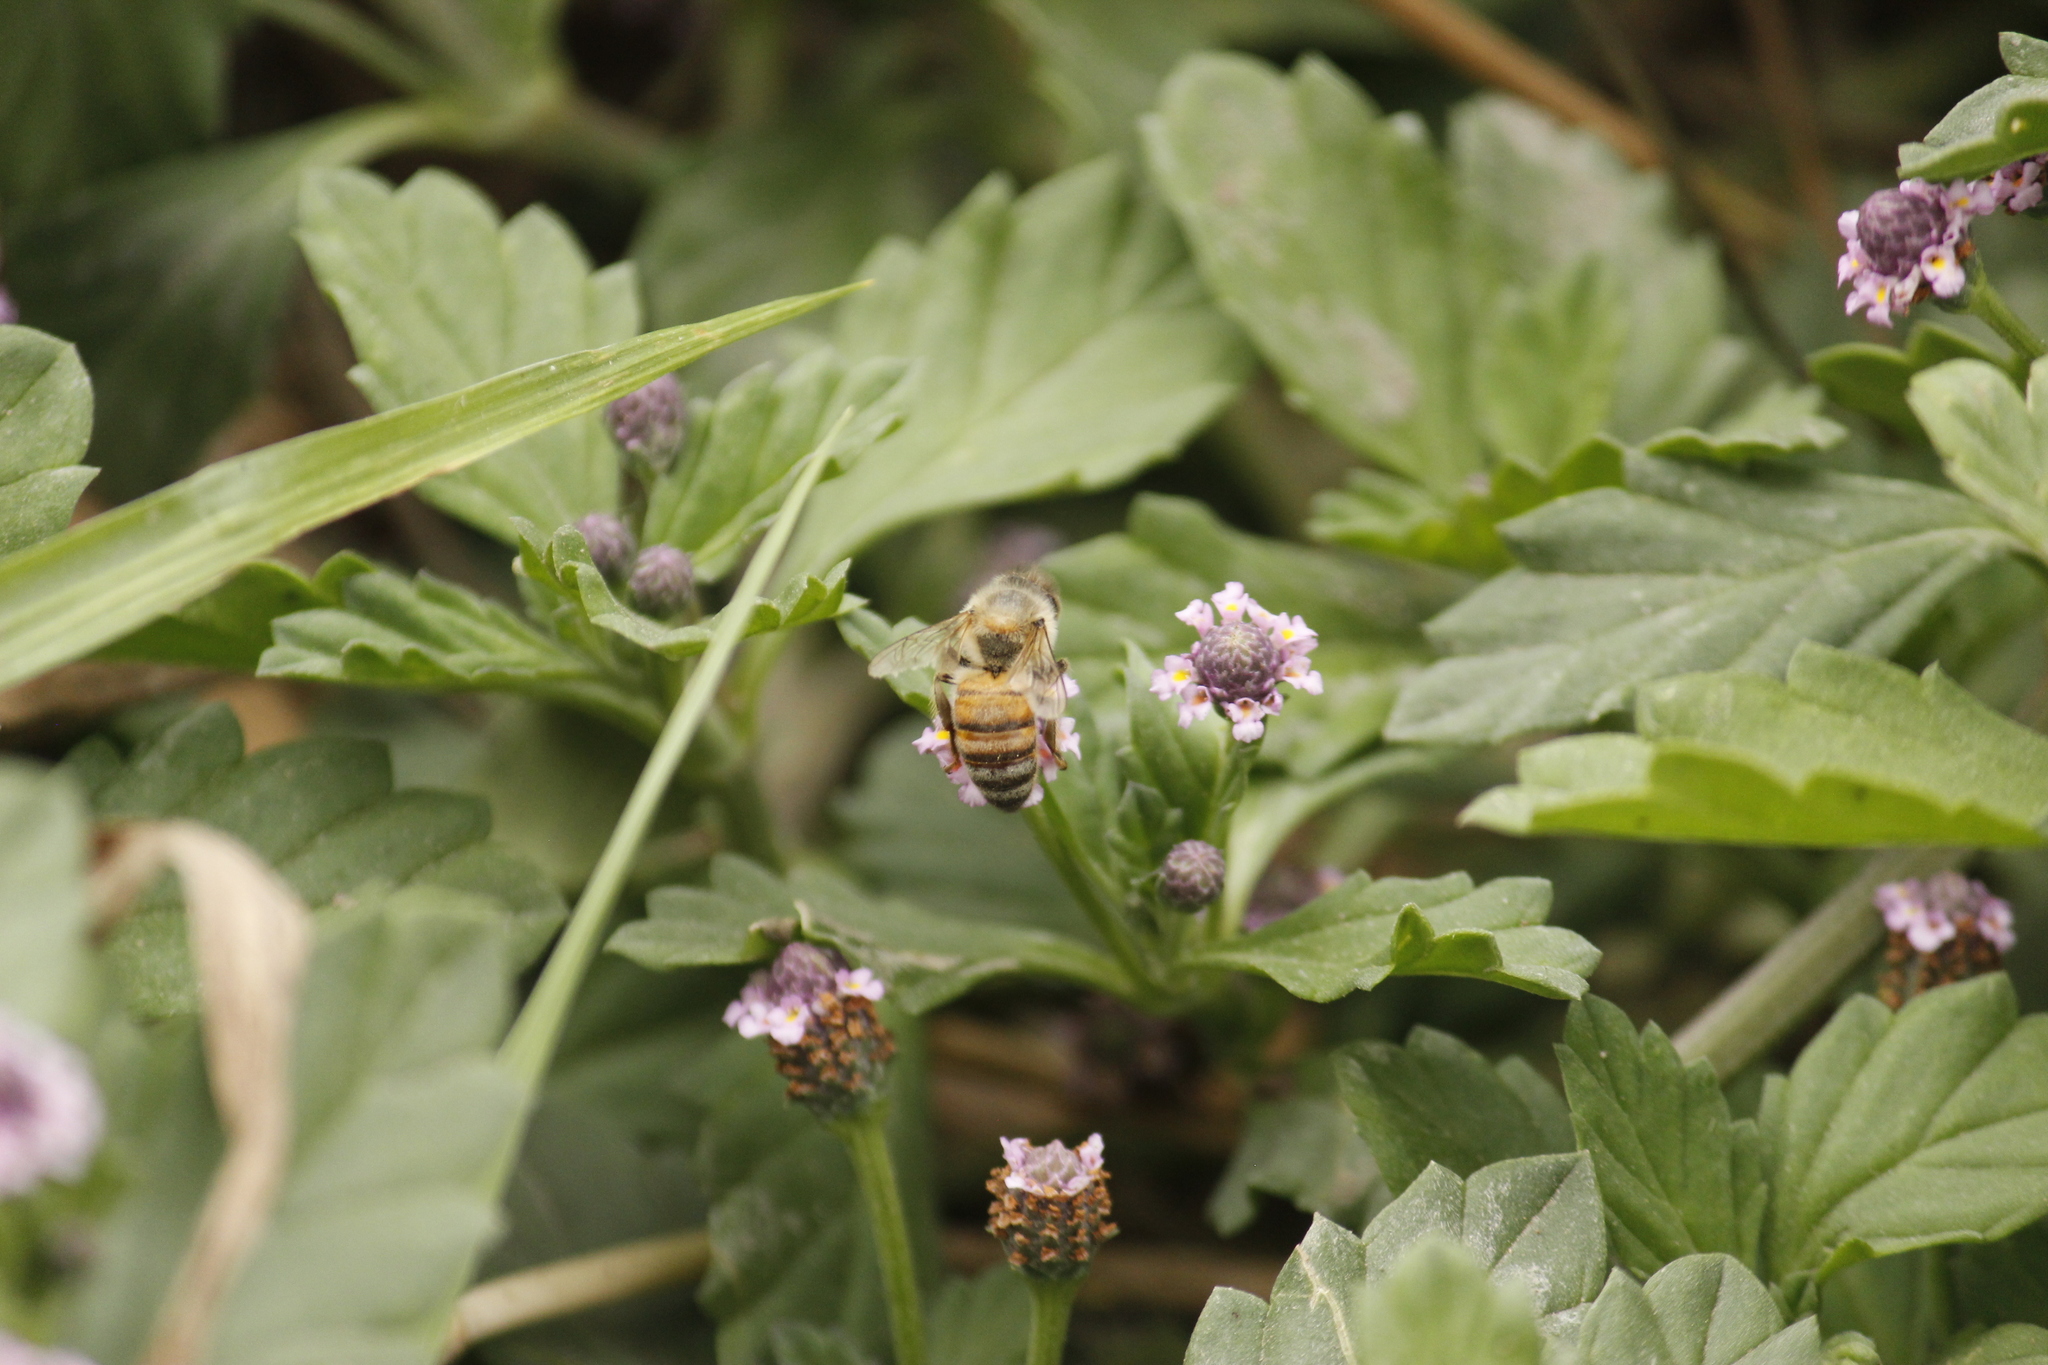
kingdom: Animalia
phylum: Arthropoda
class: Insecta
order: Hymenoptera
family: Apidae
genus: Apis
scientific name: Apis mellifera
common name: Honey bee
